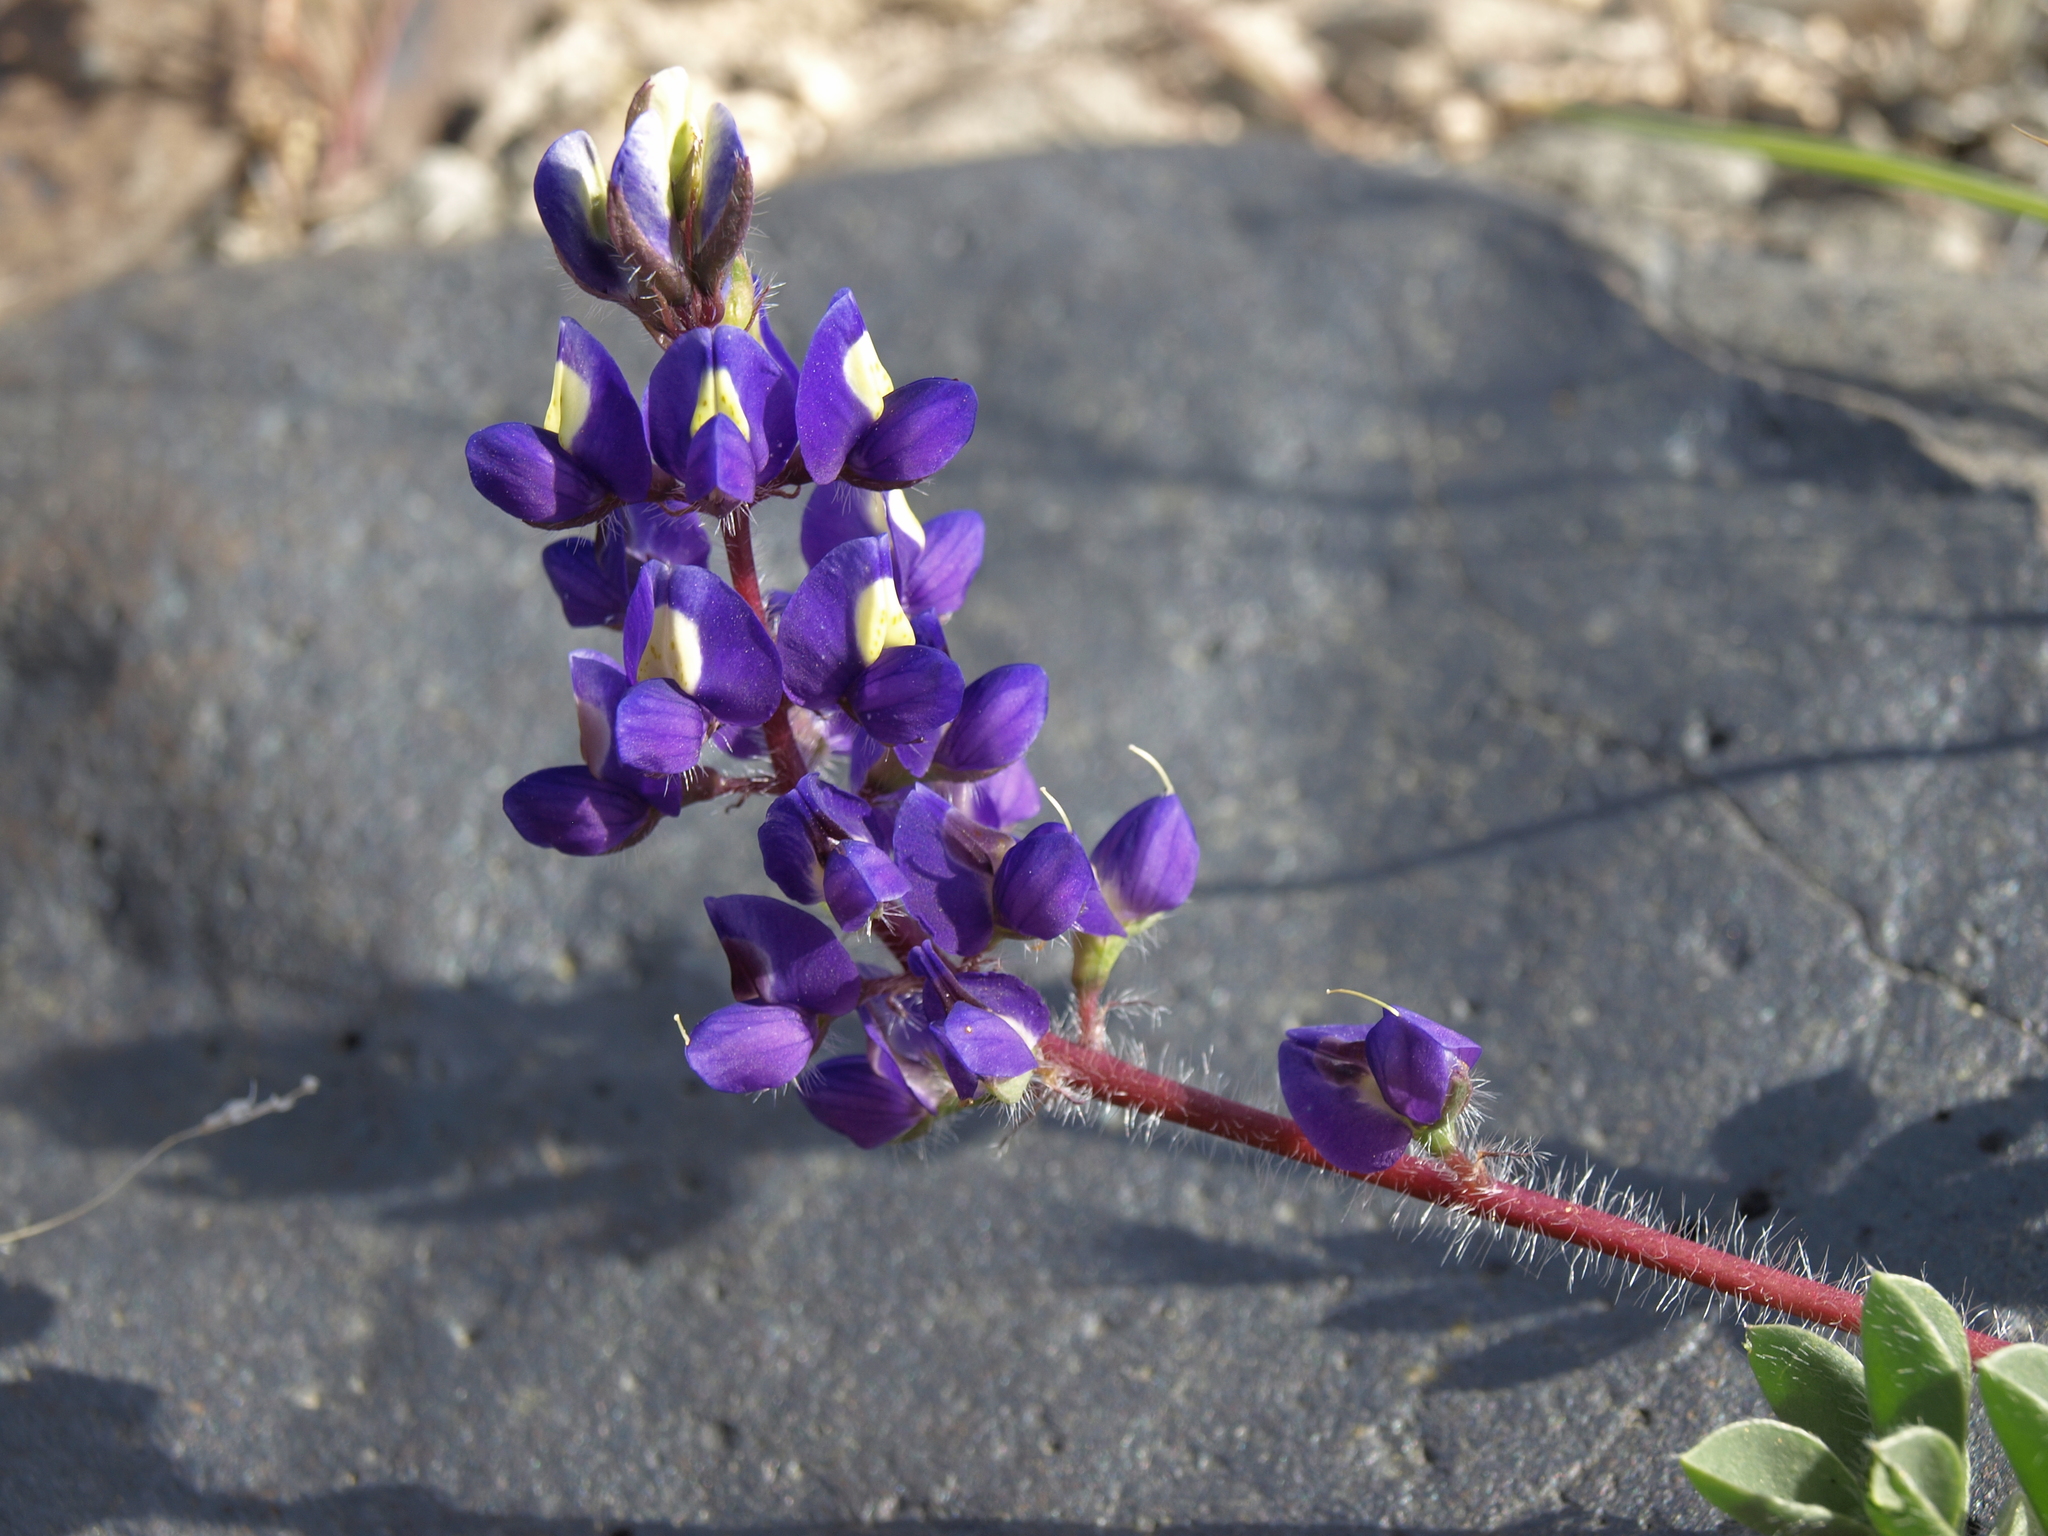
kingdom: Plantae
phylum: Tracheophyta
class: Magnoliopsida
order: Fabales
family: Fabaceae
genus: Lupinus
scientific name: Lupinus flavoculatus
